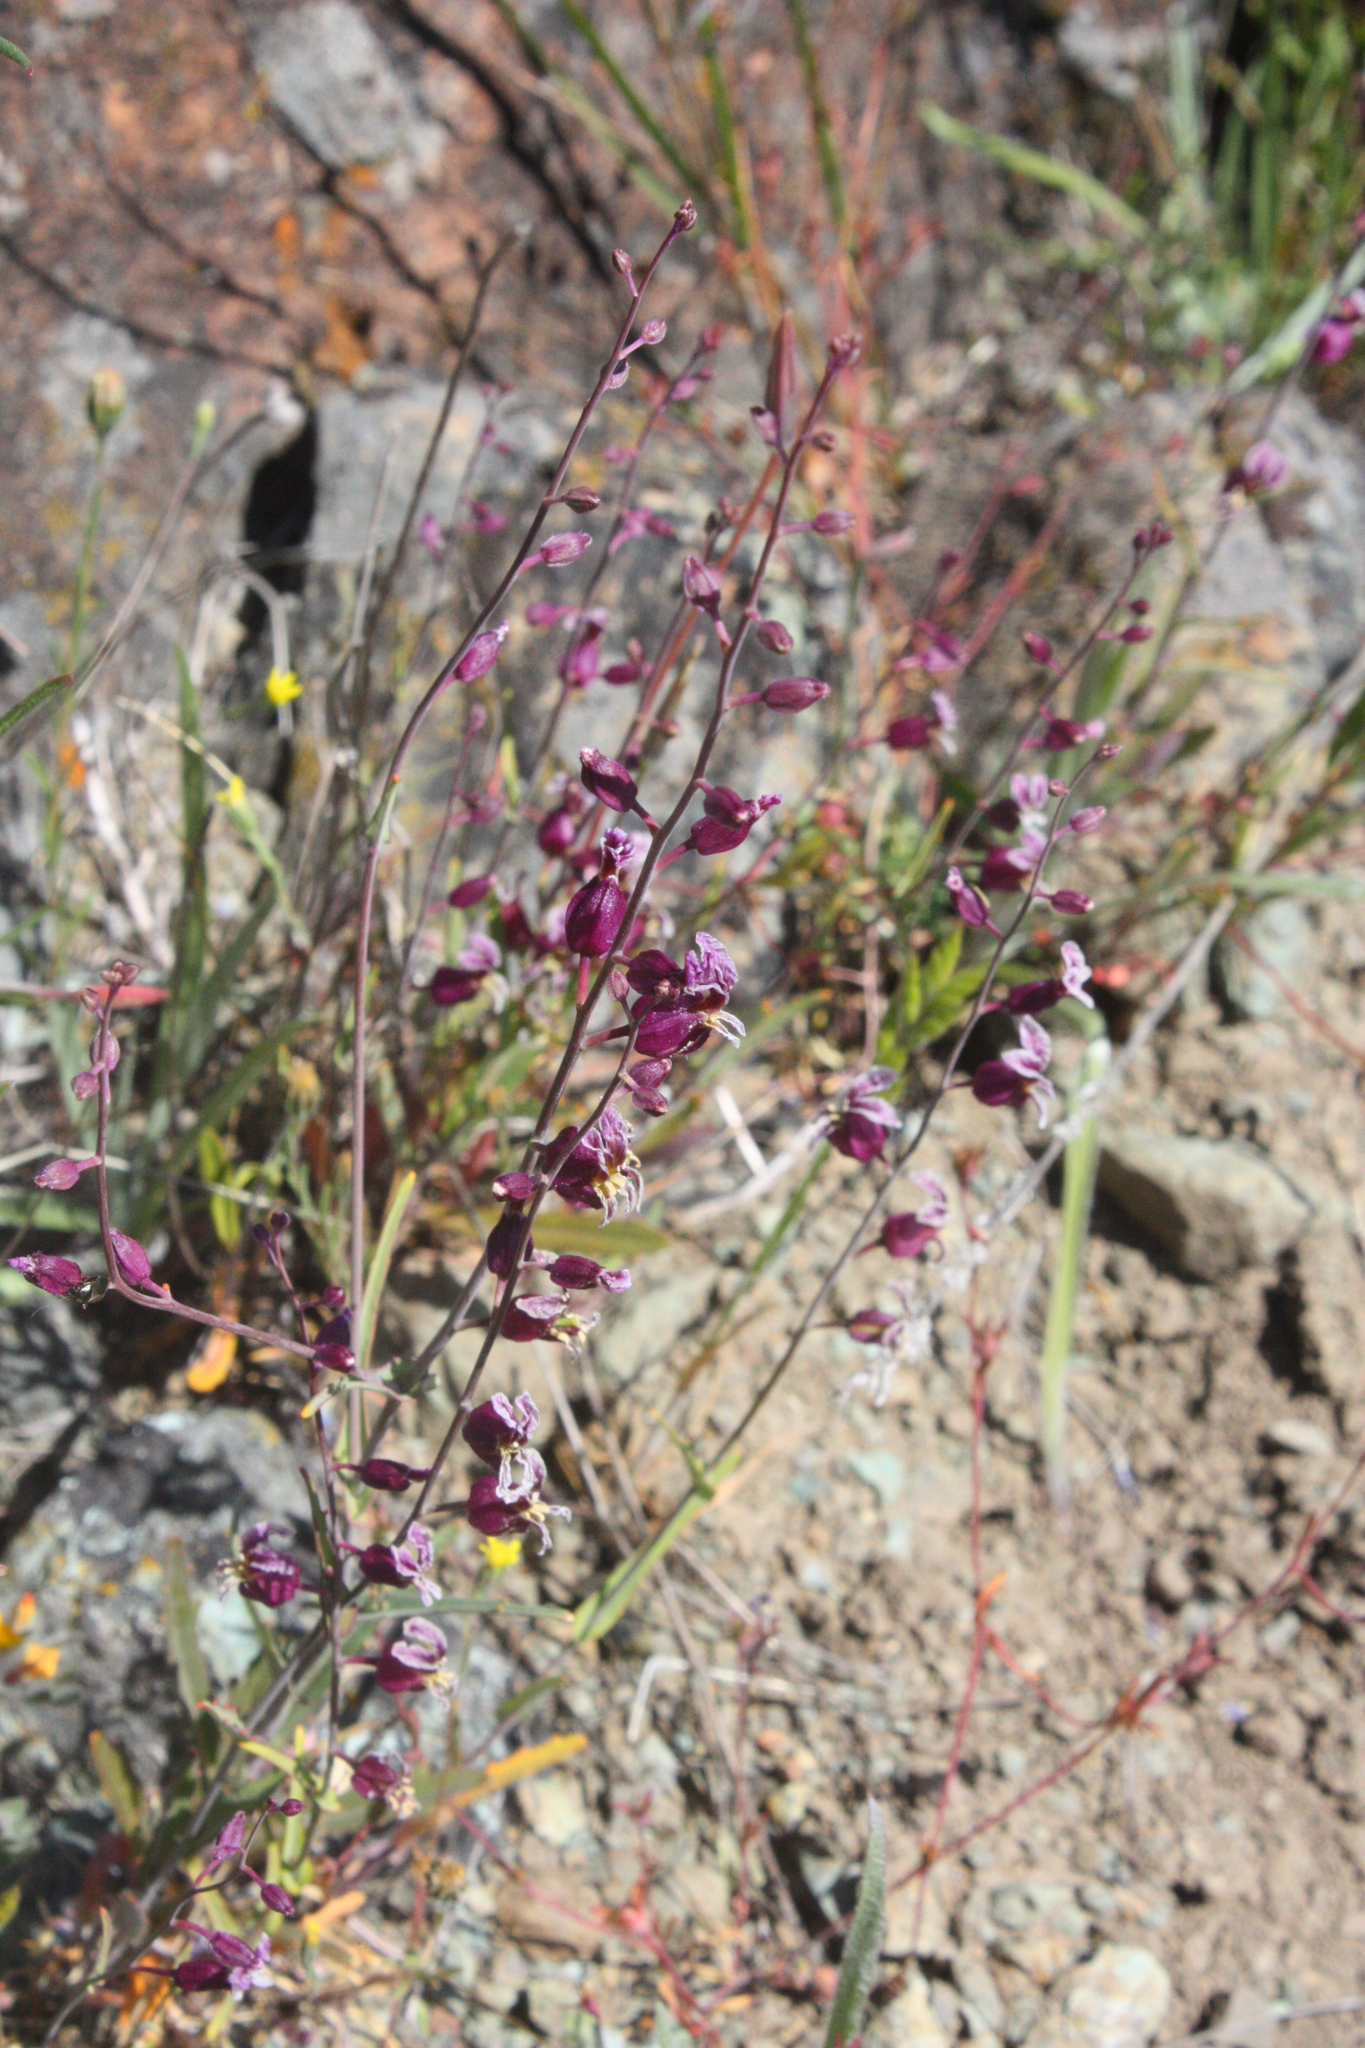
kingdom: Plantae
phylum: Tracheophyta
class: Magnoliopsida
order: Brassicales
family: Brassicaceae
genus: Streptanthus
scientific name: Streptanthus glandulosus
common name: Jewel-flower
